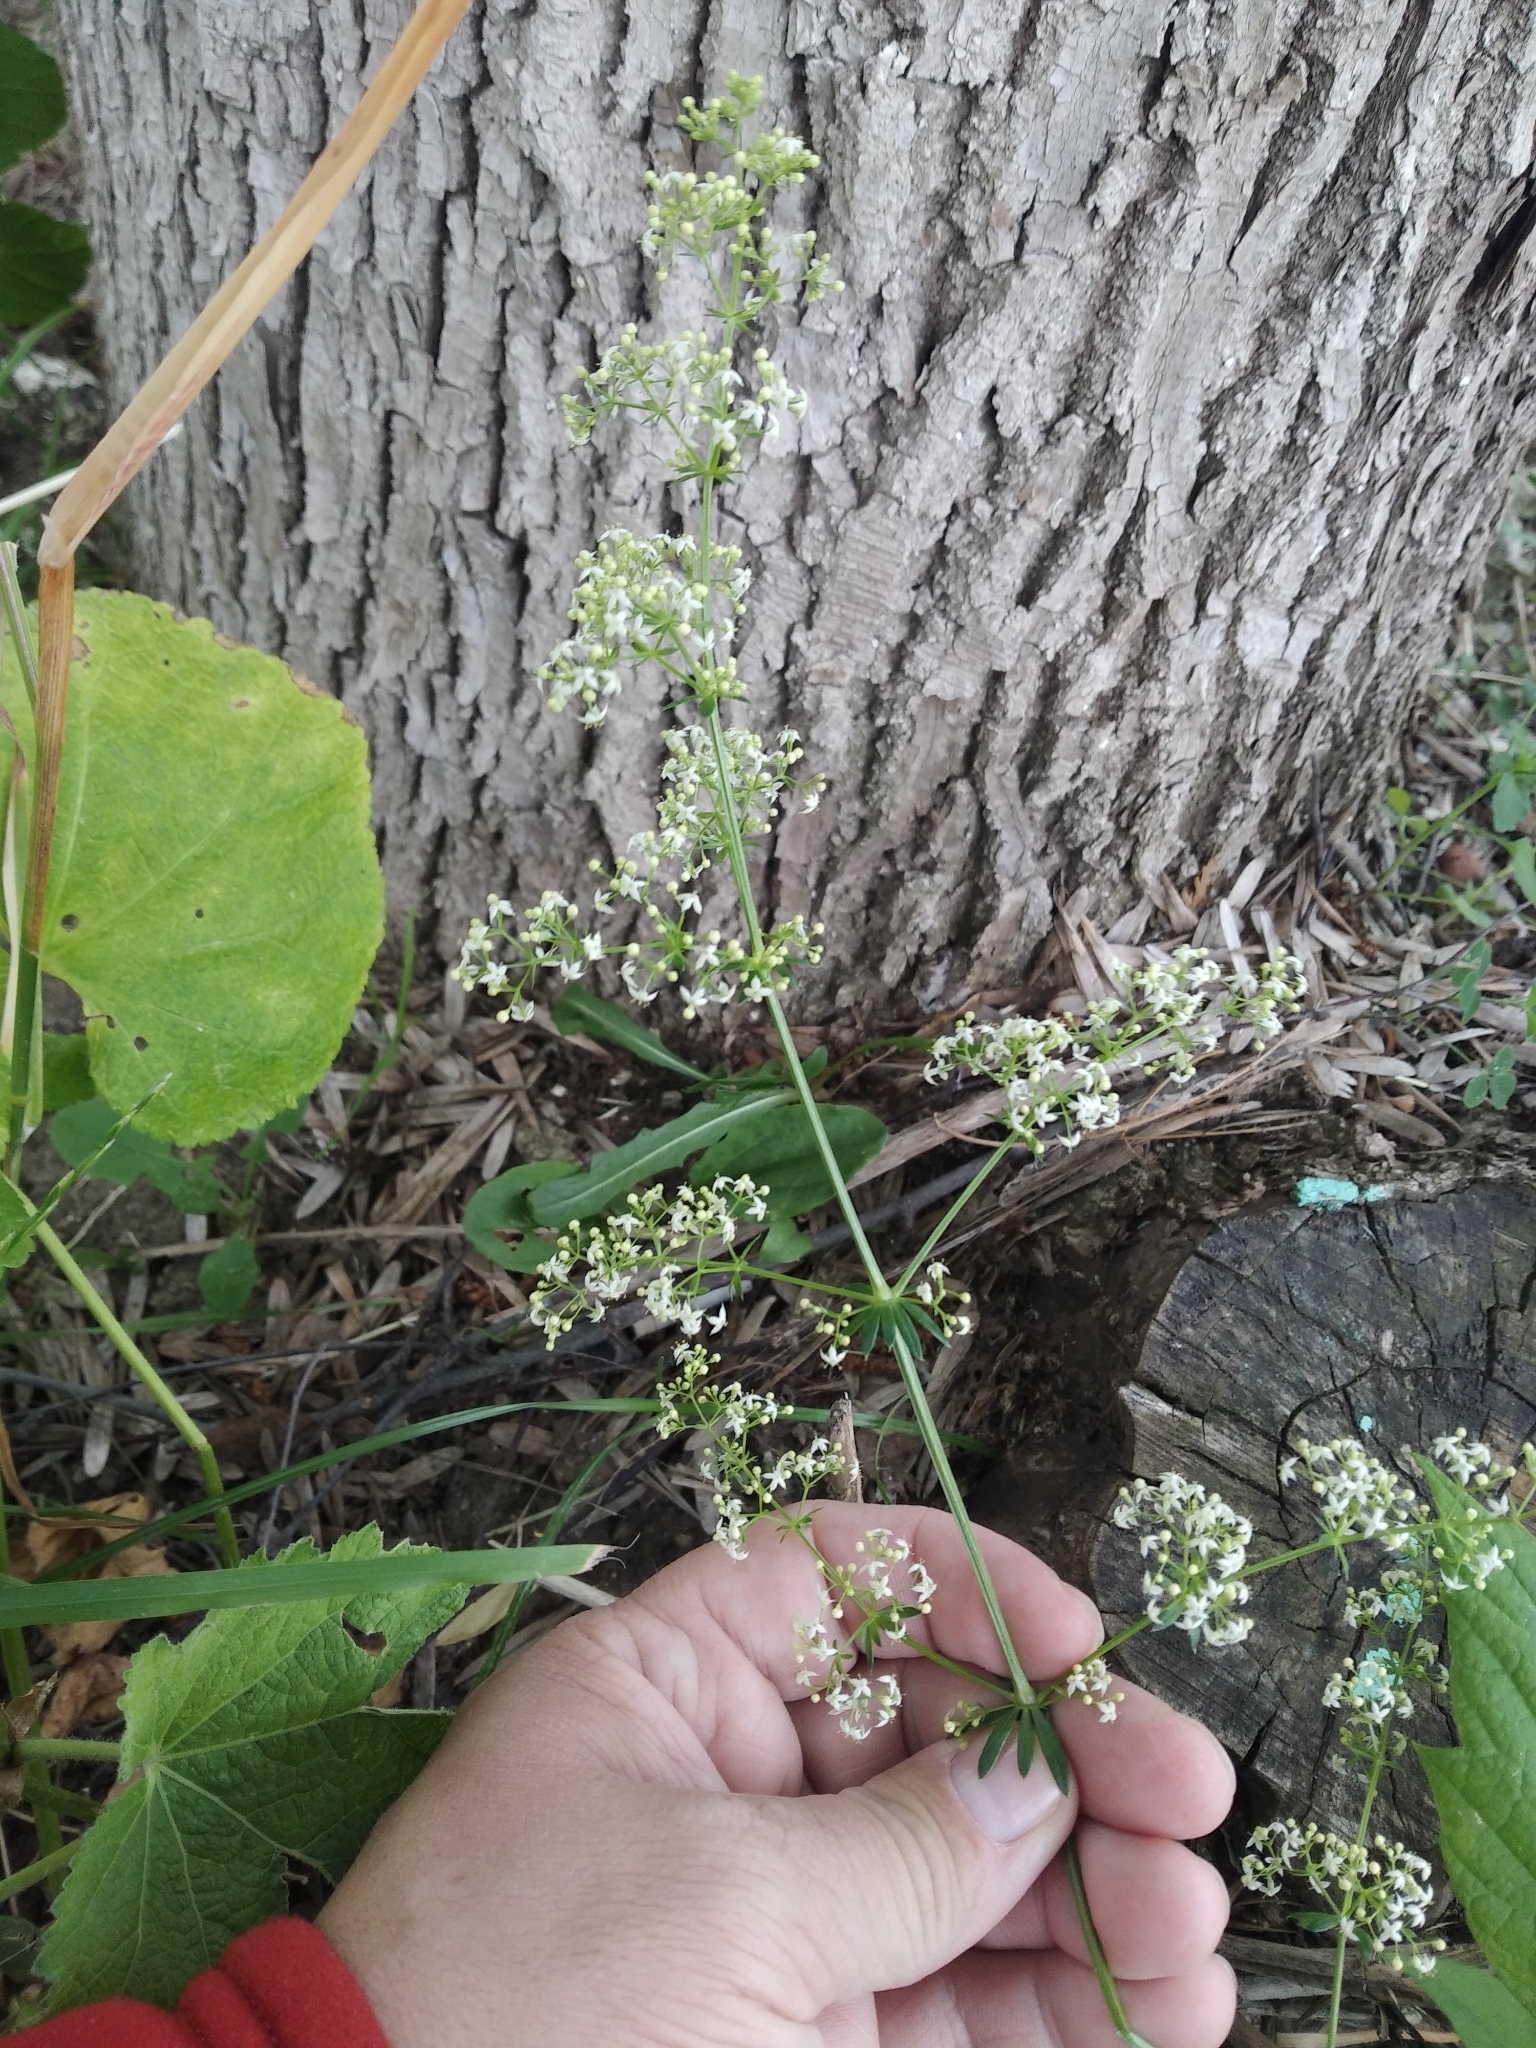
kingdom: Plantae
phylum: Tracheophyta
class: Magnoliopsida
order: Gentianales
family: Rubiaceae
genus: Galium
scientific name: Galium mollugo
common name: Hedge bedstraw
